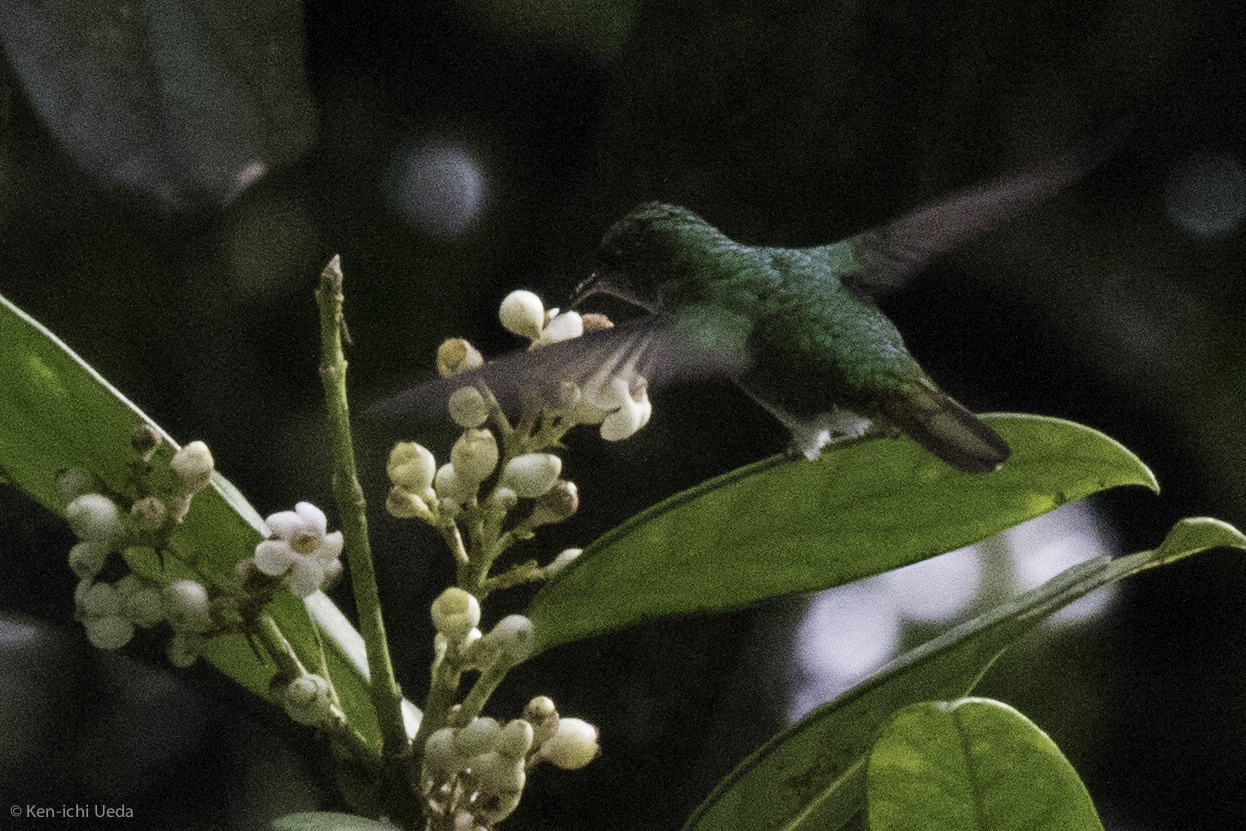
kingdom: Animalia
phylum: Chordata
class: Aves
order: Apodiformes
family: Trochilidae
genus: Microchera
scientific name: Microchera cupreiceps
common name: Coppery-headed emerald
